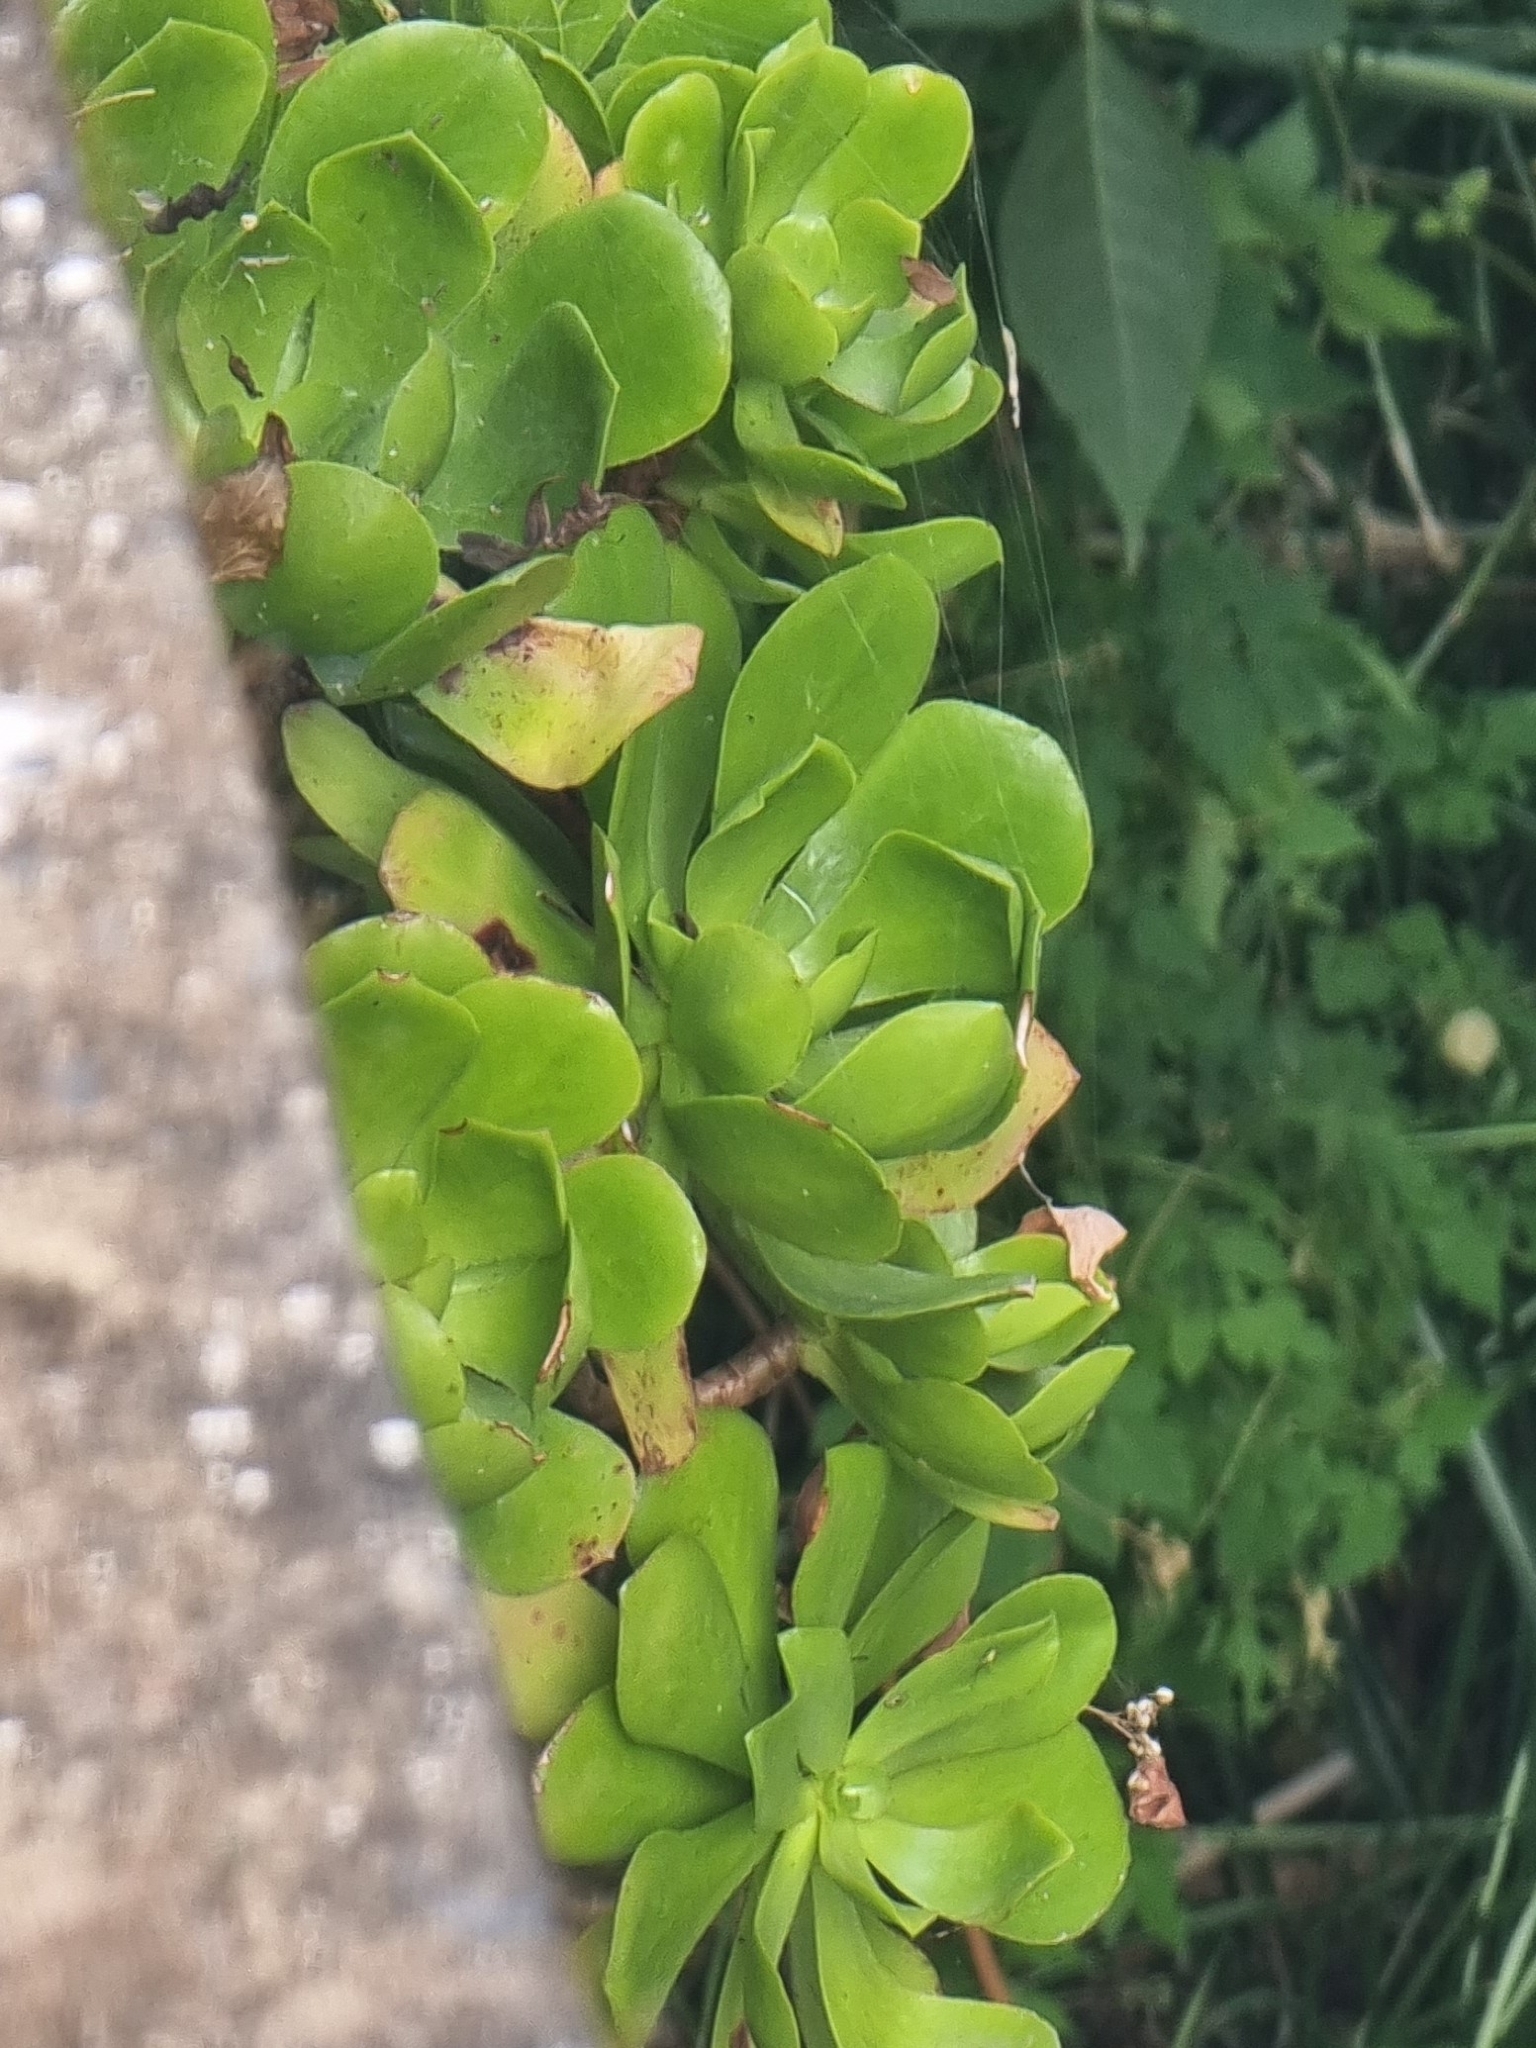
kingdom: Plantae
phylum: Tracheophyta
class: Magnoliopsida
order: Saxifragales
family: Crassulaceae
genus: Aeonium
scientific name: Aeonium glutinosum
